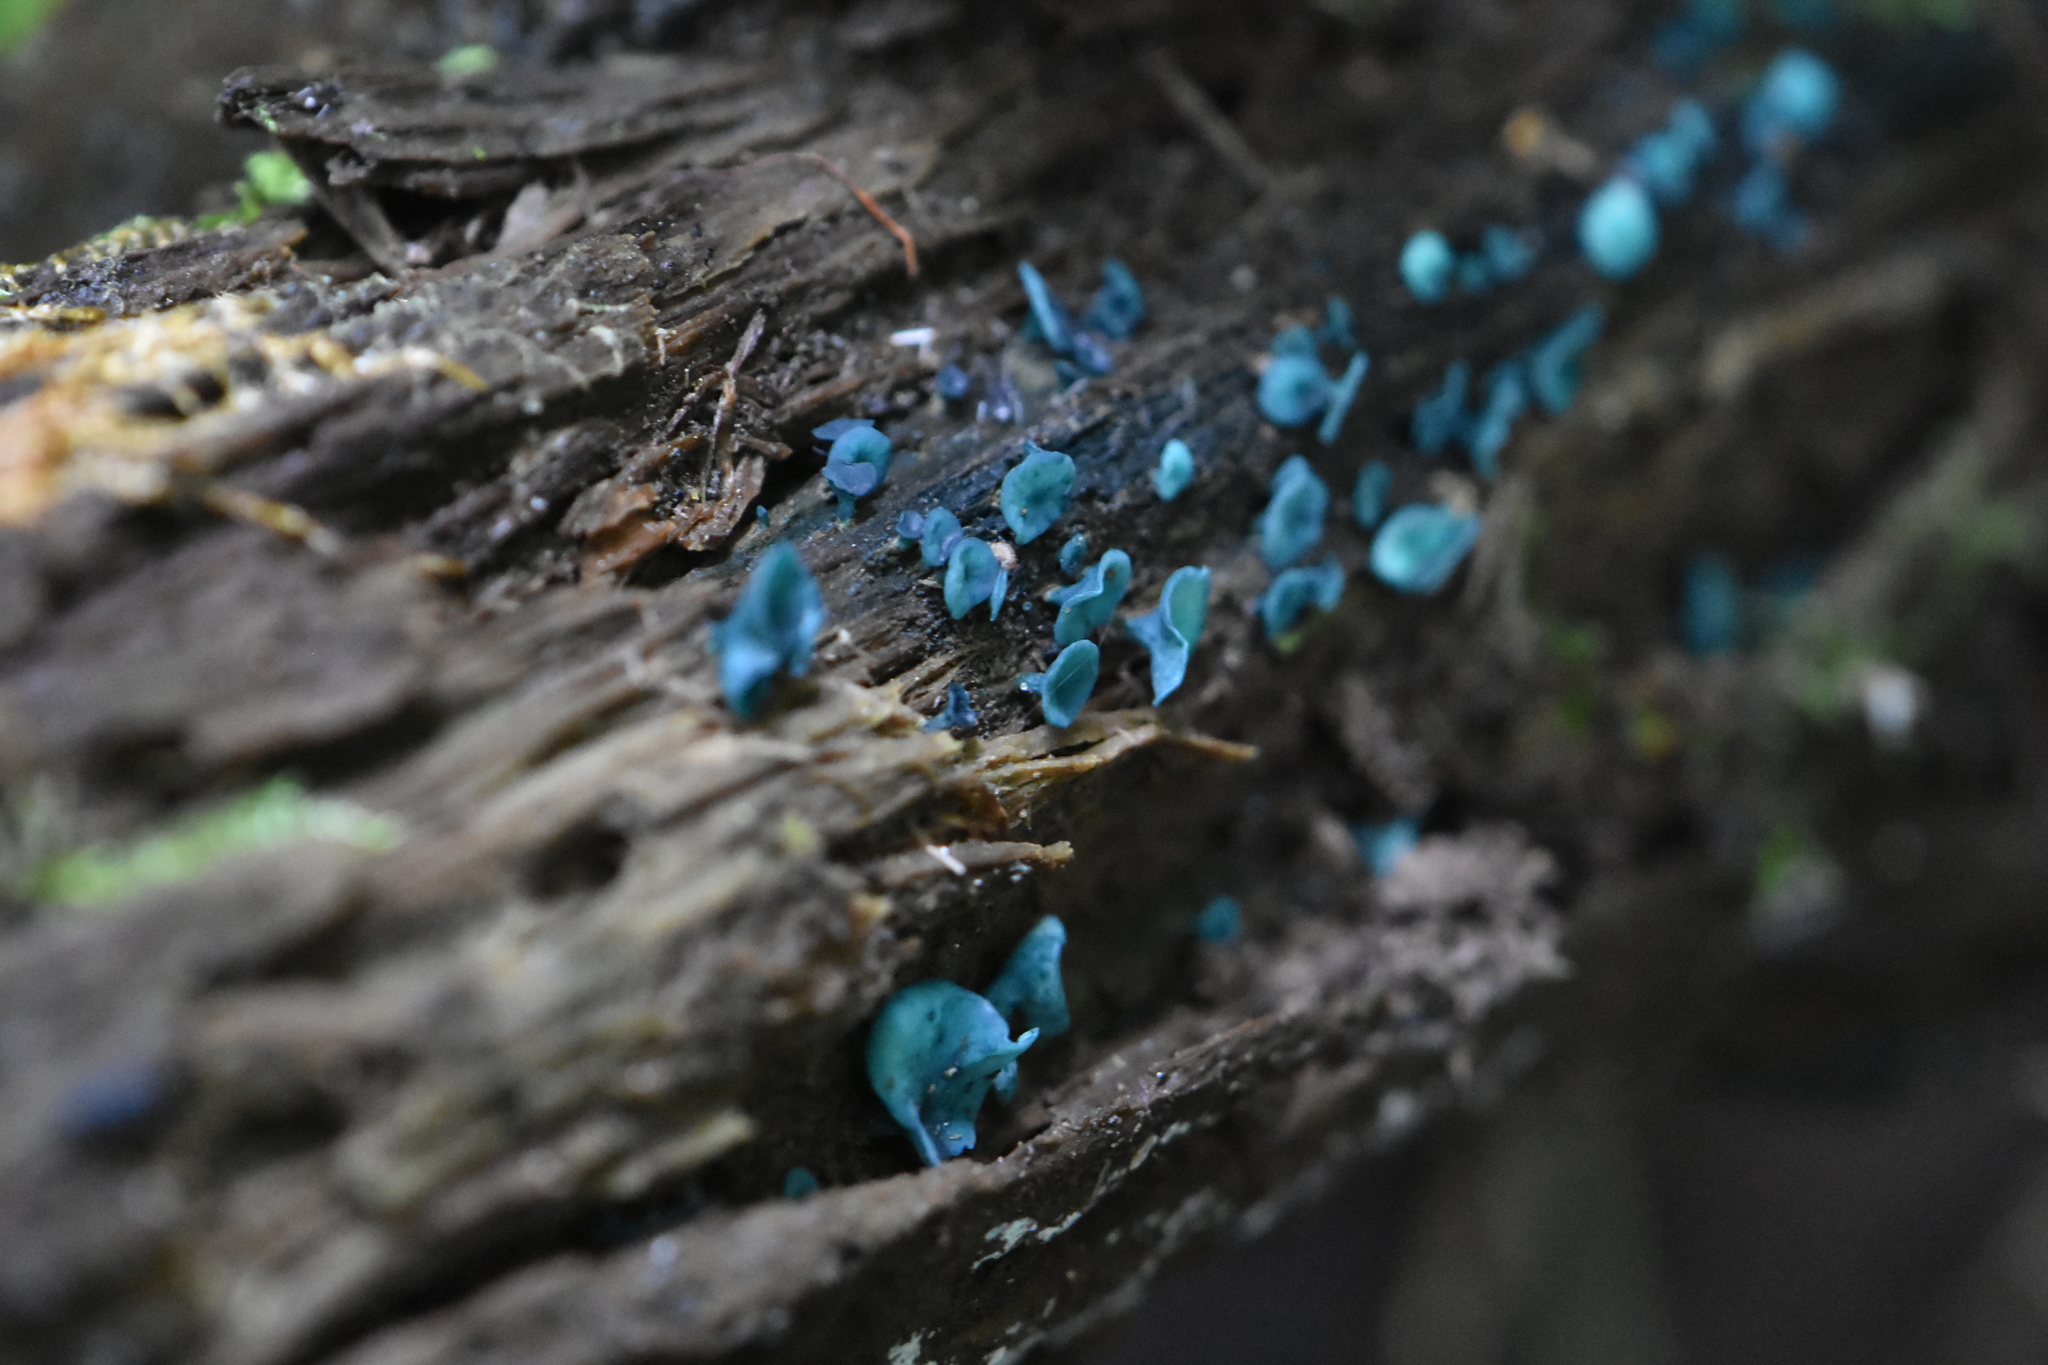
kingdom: Fungi
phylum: Ascomycota
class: Leotiomycetes
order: Helotiales
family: Chlorociboriaceae
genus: Chlorociboria
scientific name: Chlorociboria aeruginascens
